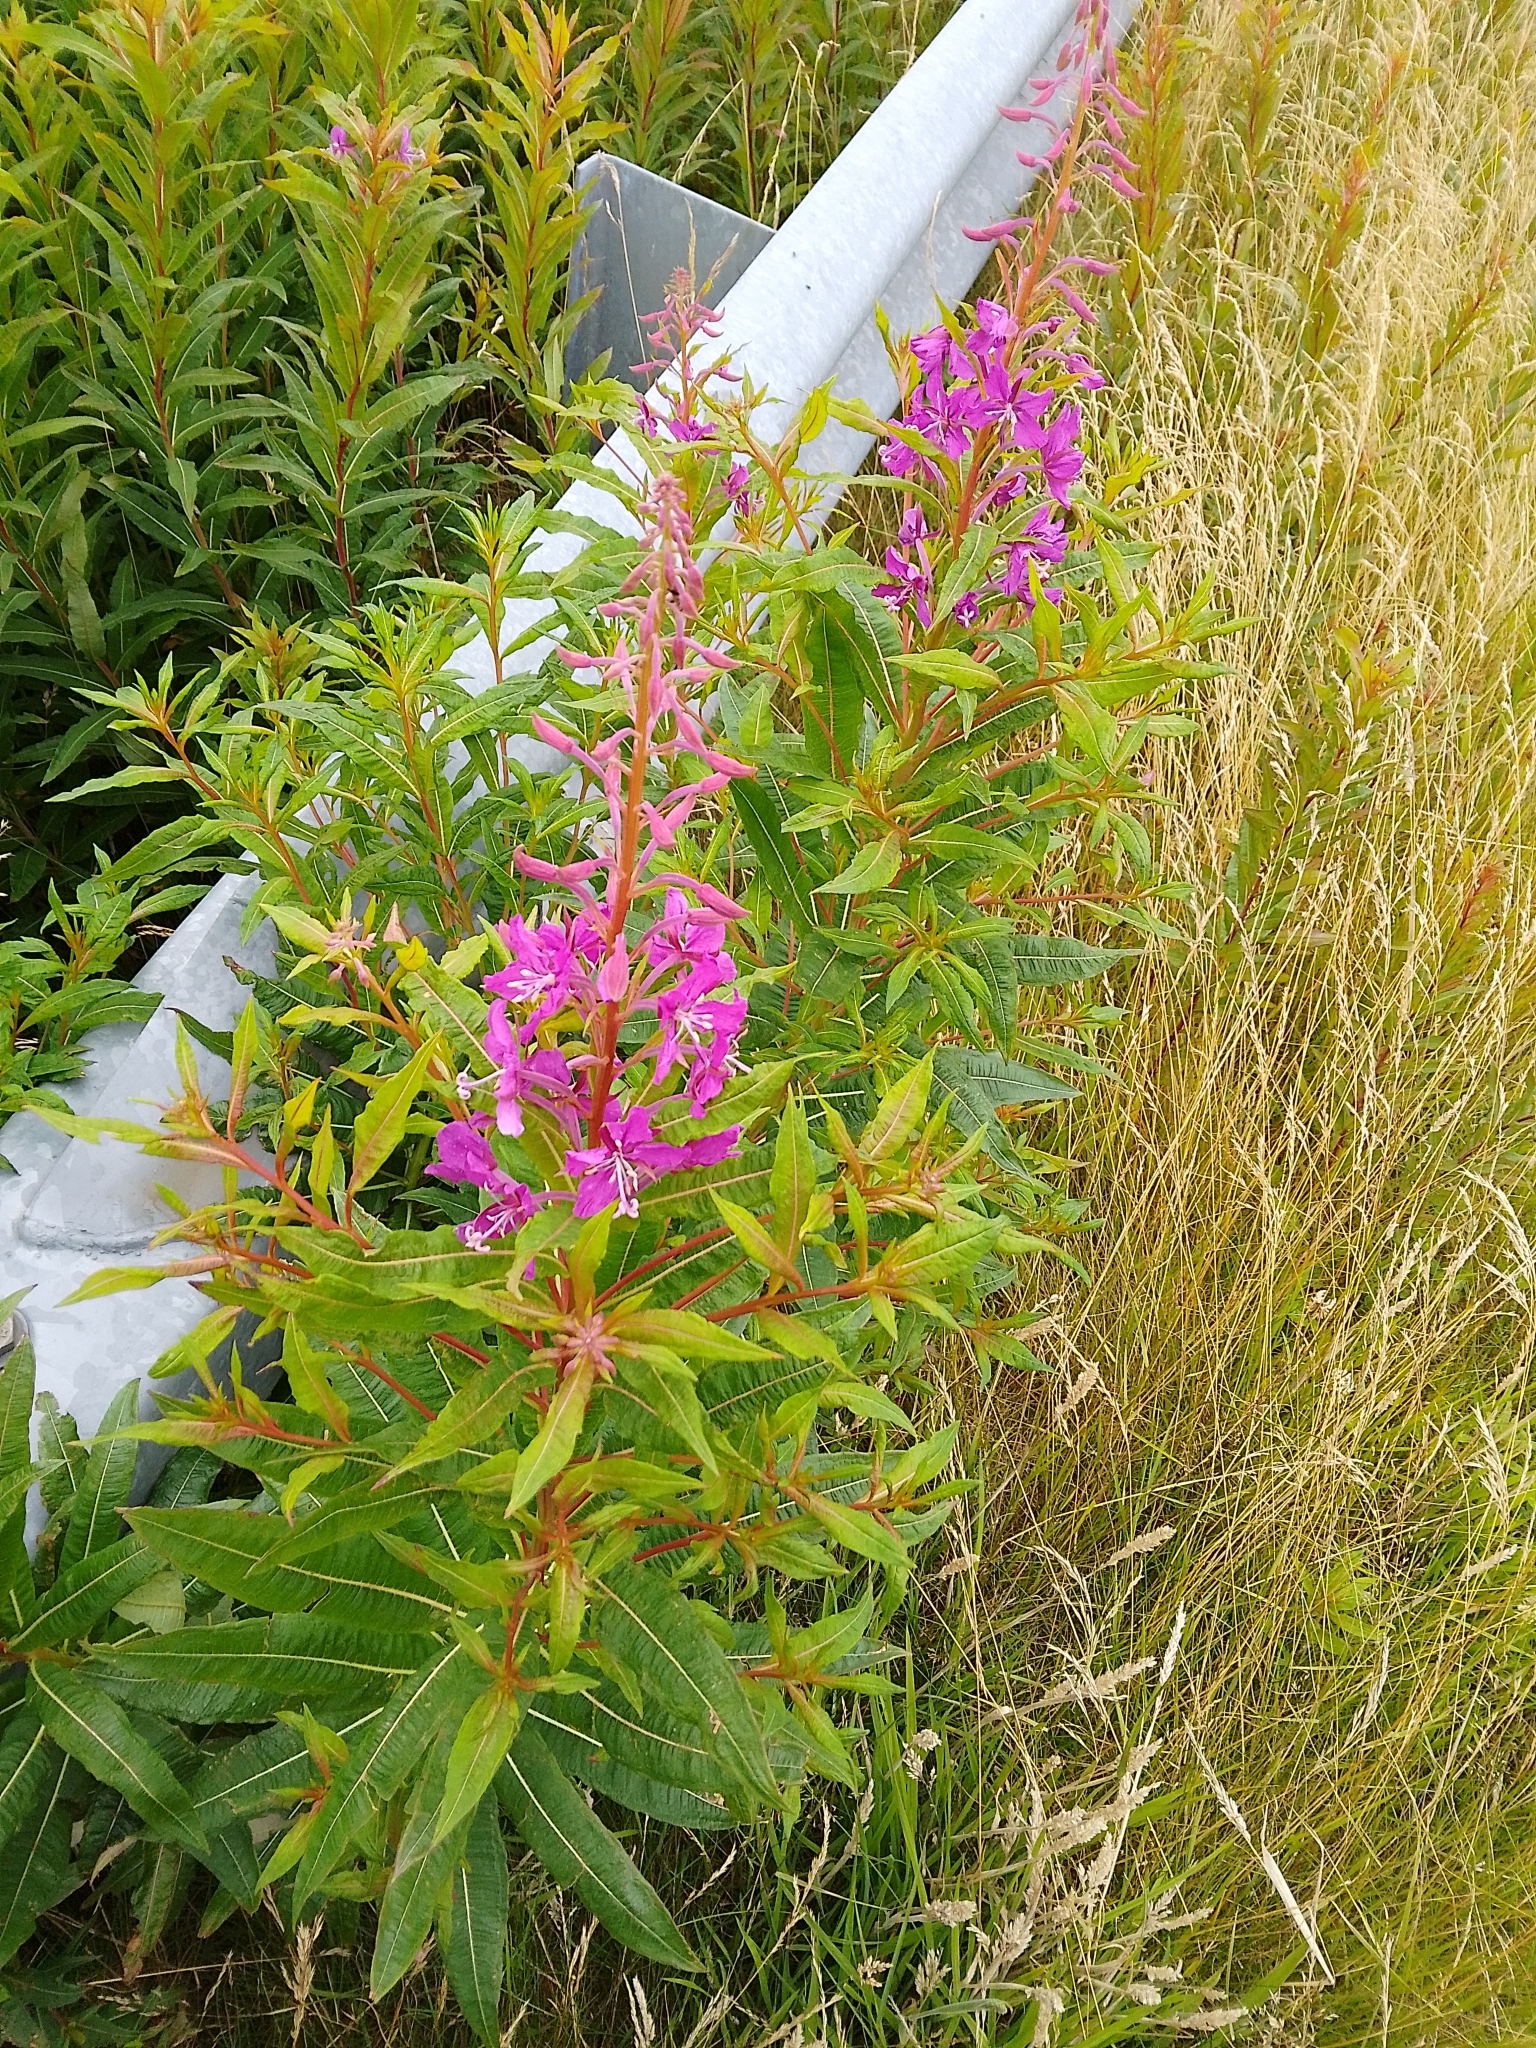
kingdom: Plantae
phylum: Tracheophyta
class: Magnoliopsida
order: Myrtales
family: Onagraceae
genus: Chamaenerion
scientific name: Chamaenerion angustifolium
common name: Fireweed
